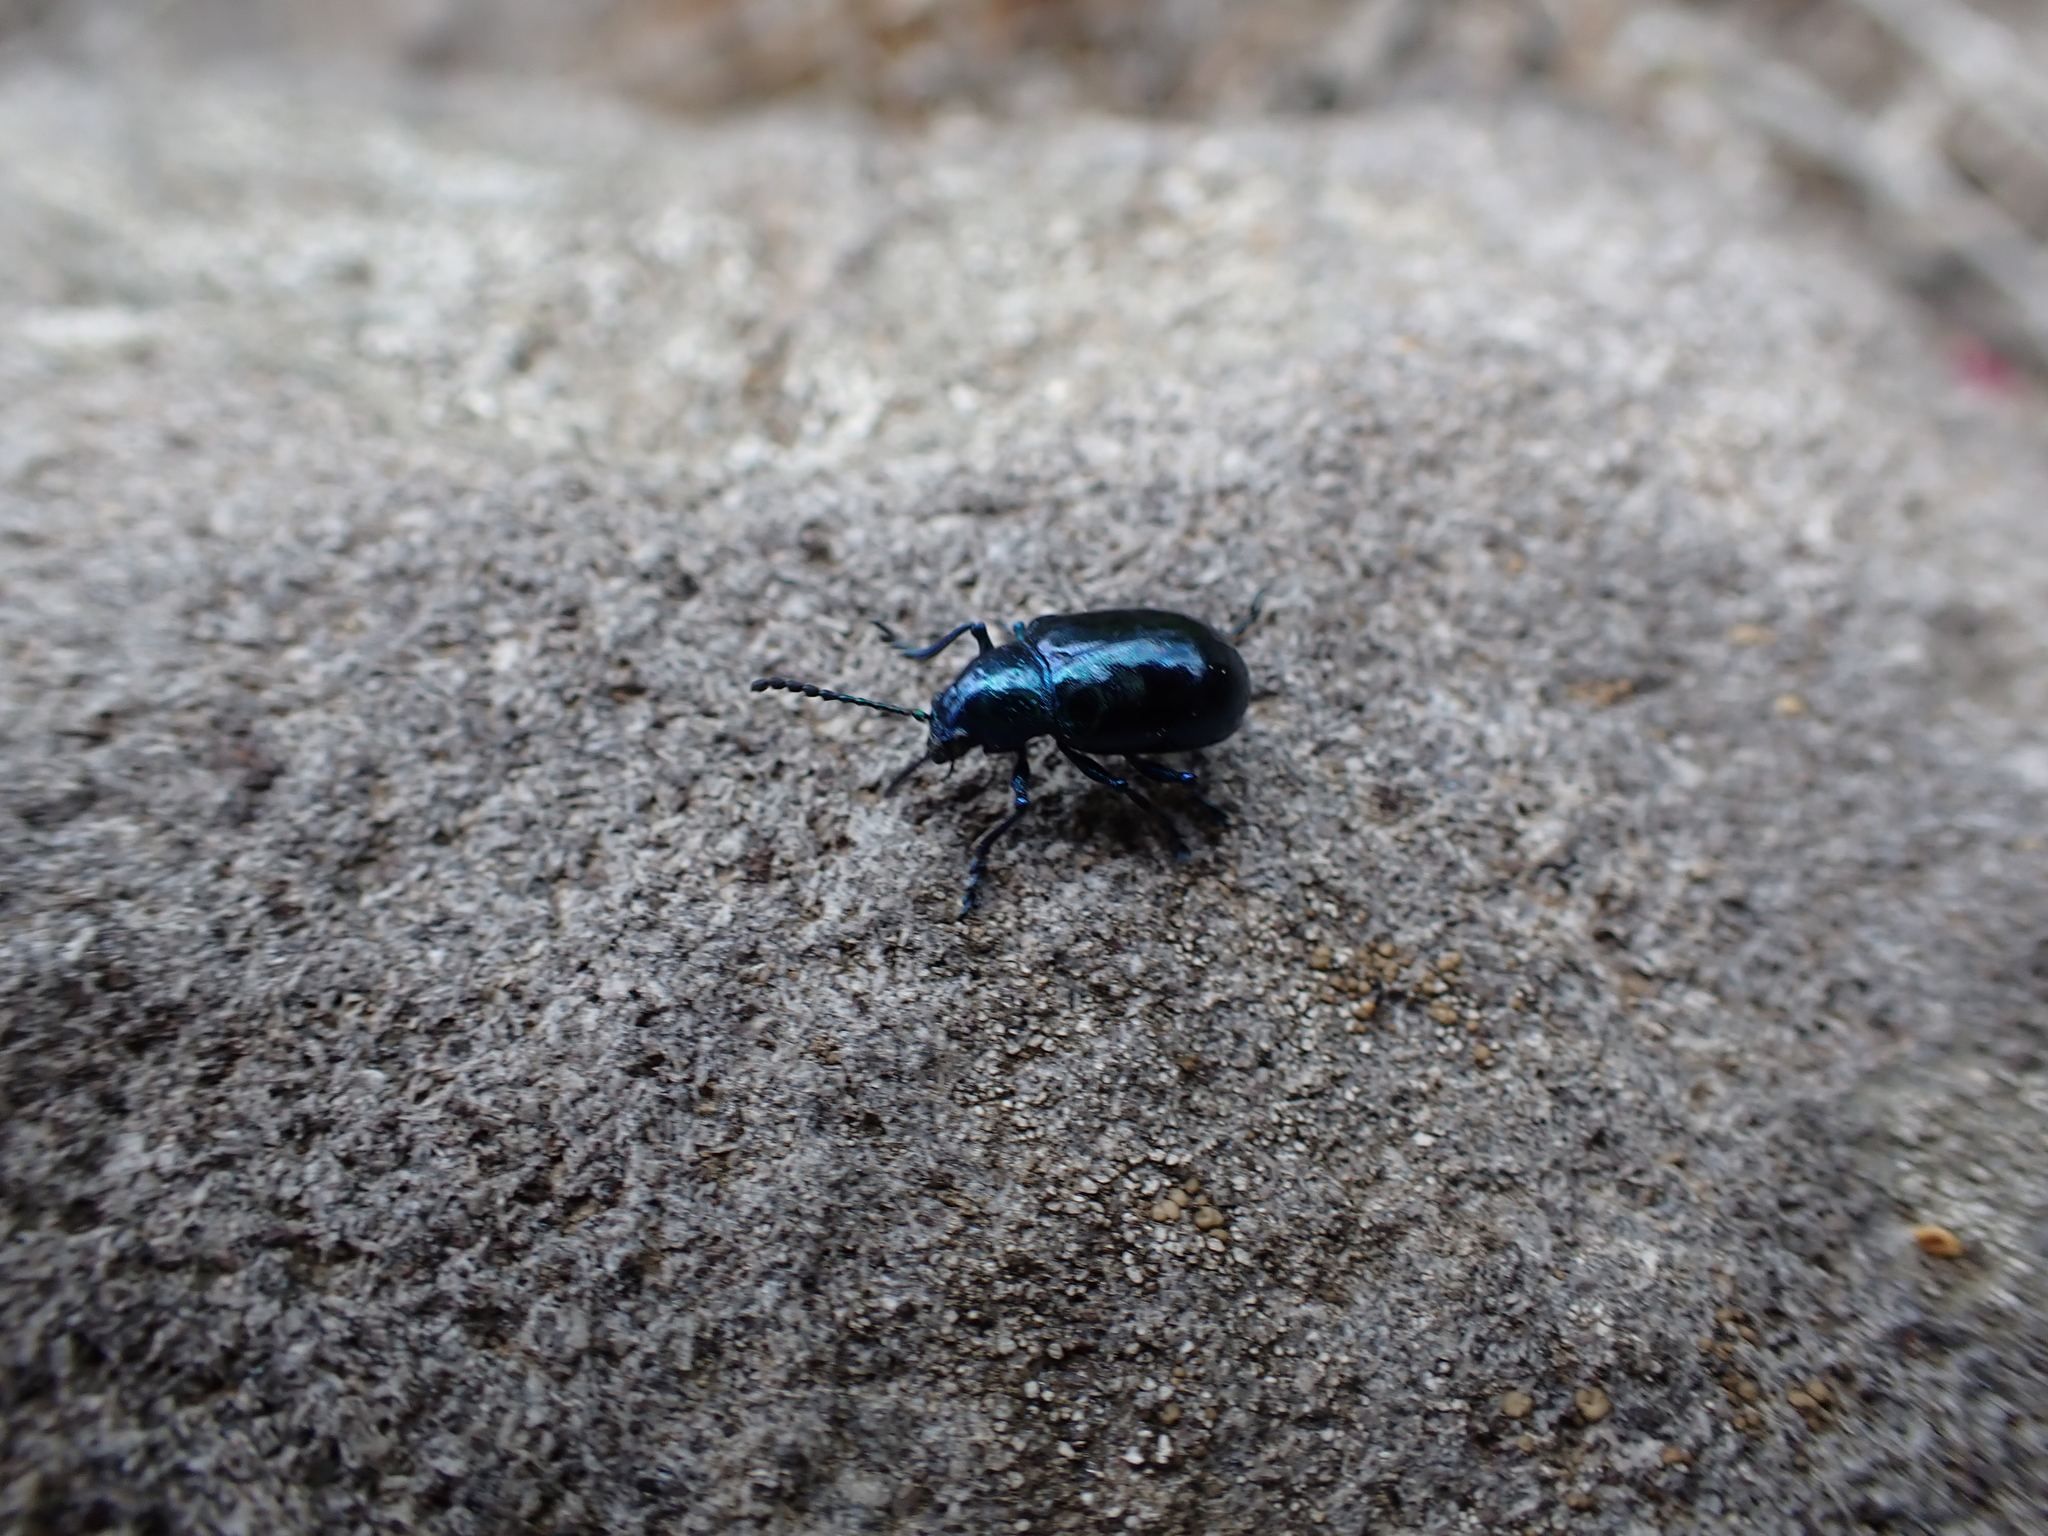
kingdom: Animalia
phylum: Arthropoda
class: Insecta
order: Coleoptera
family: Chrysomelidae
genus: Chrysochus
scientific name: Chrysochus cobaltinus
